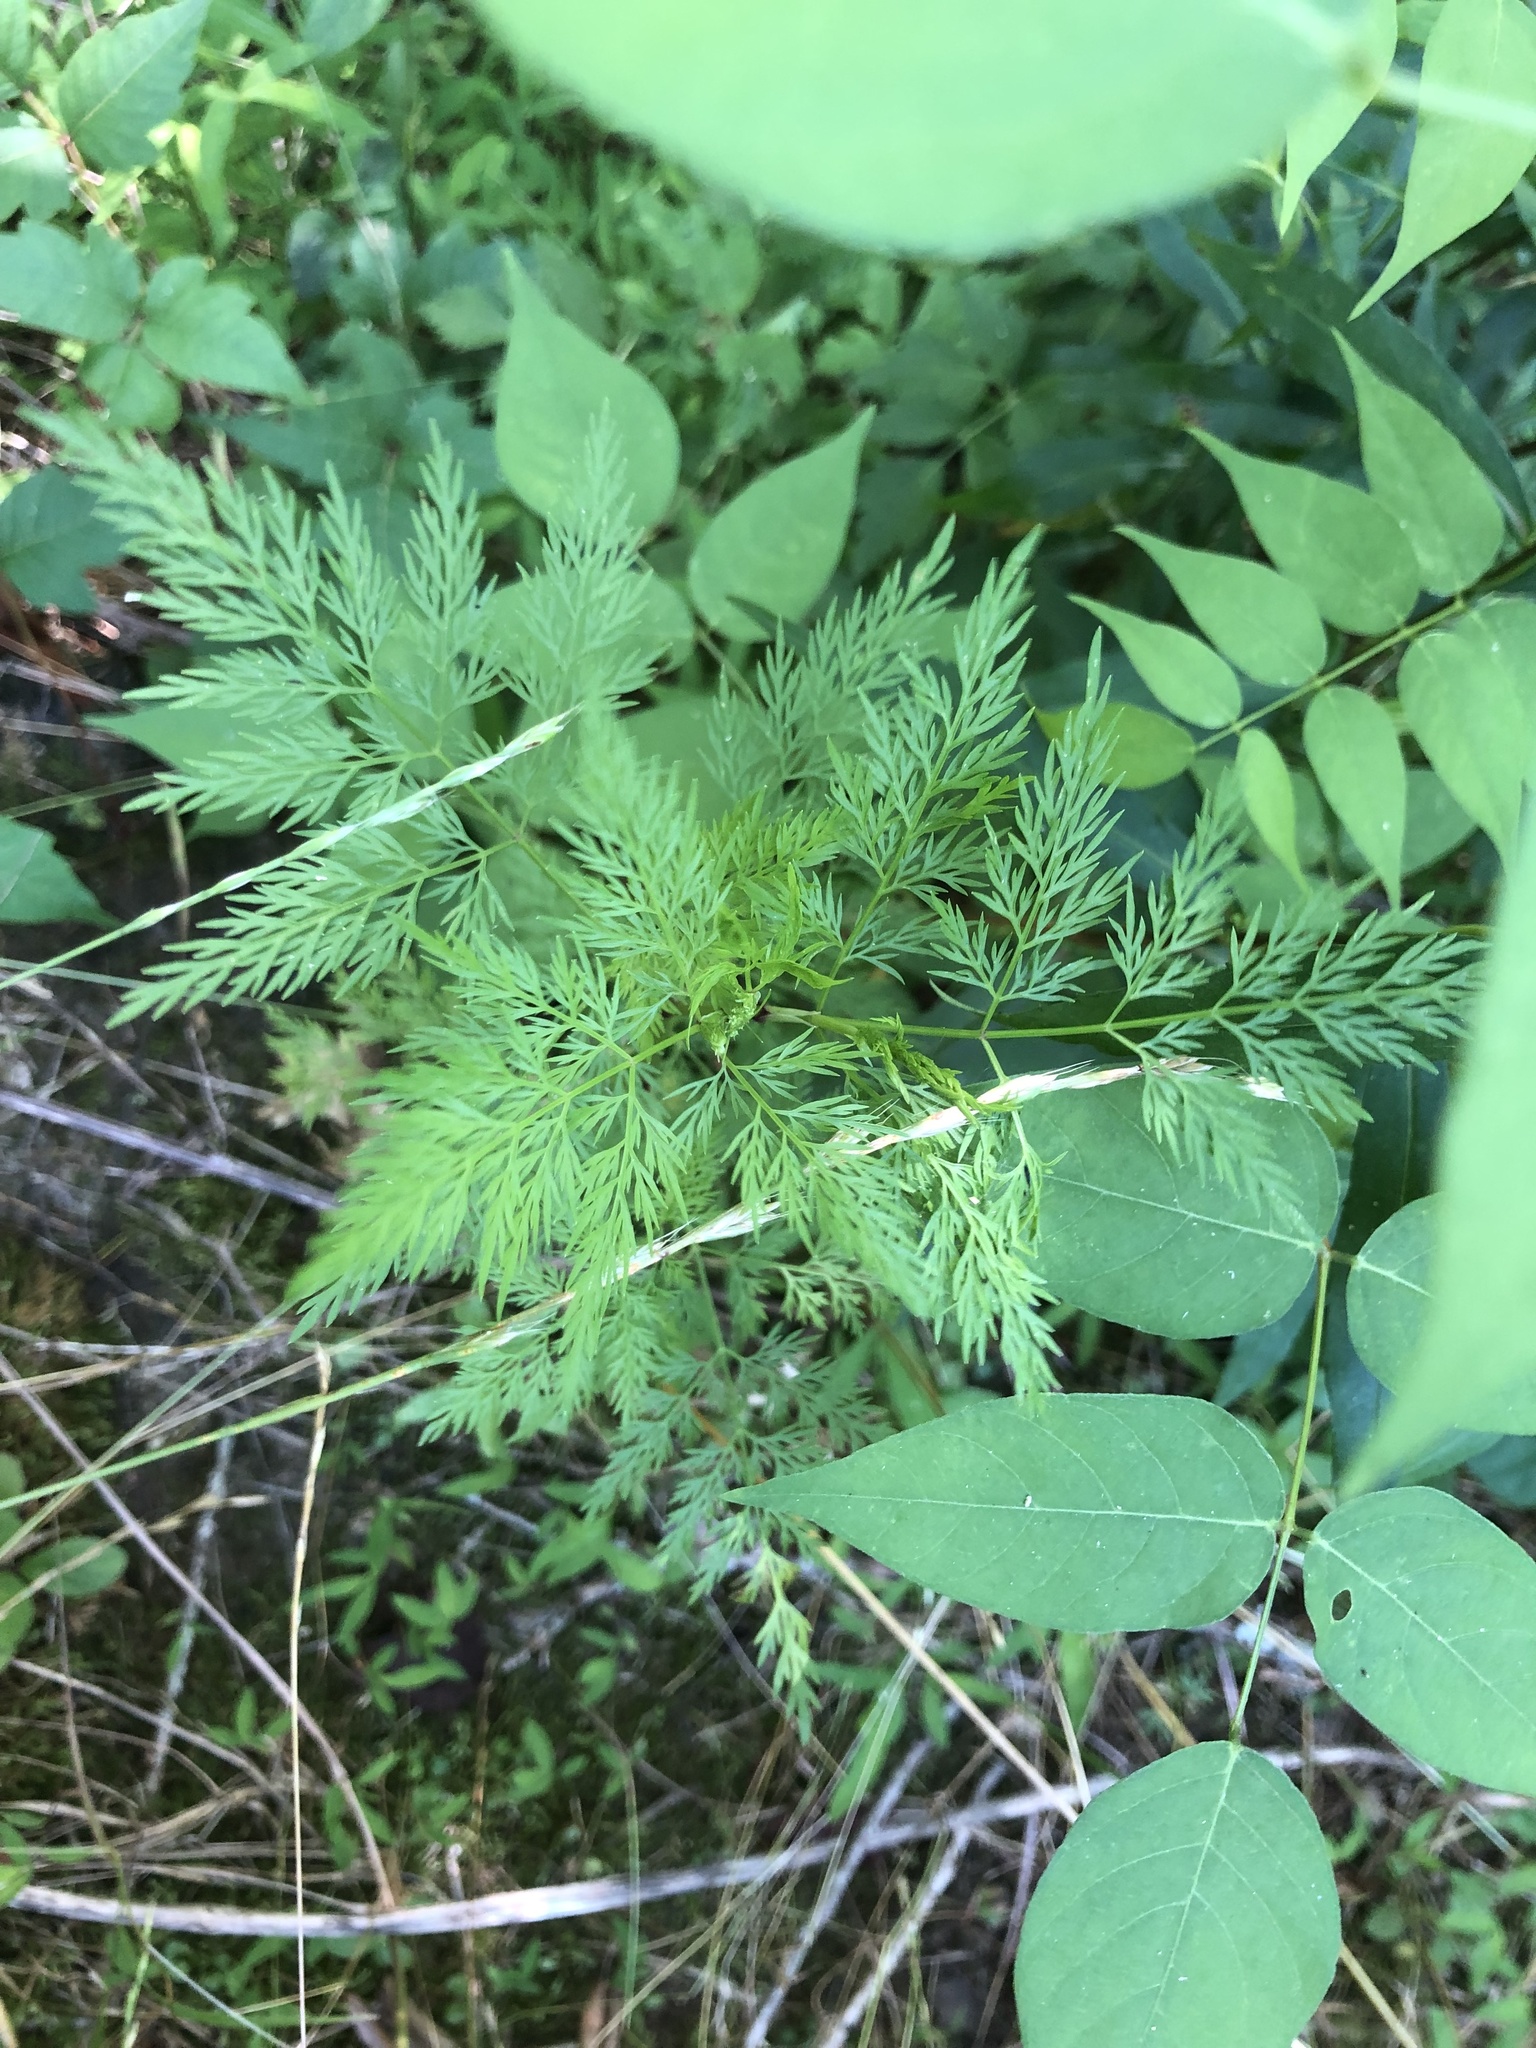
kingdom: Plantae
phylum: Tracheophyta
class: Magnoliopsida
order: Apiales
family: Apiaceae
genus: Trepocarpus
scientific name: Trepocarpus aethusae
